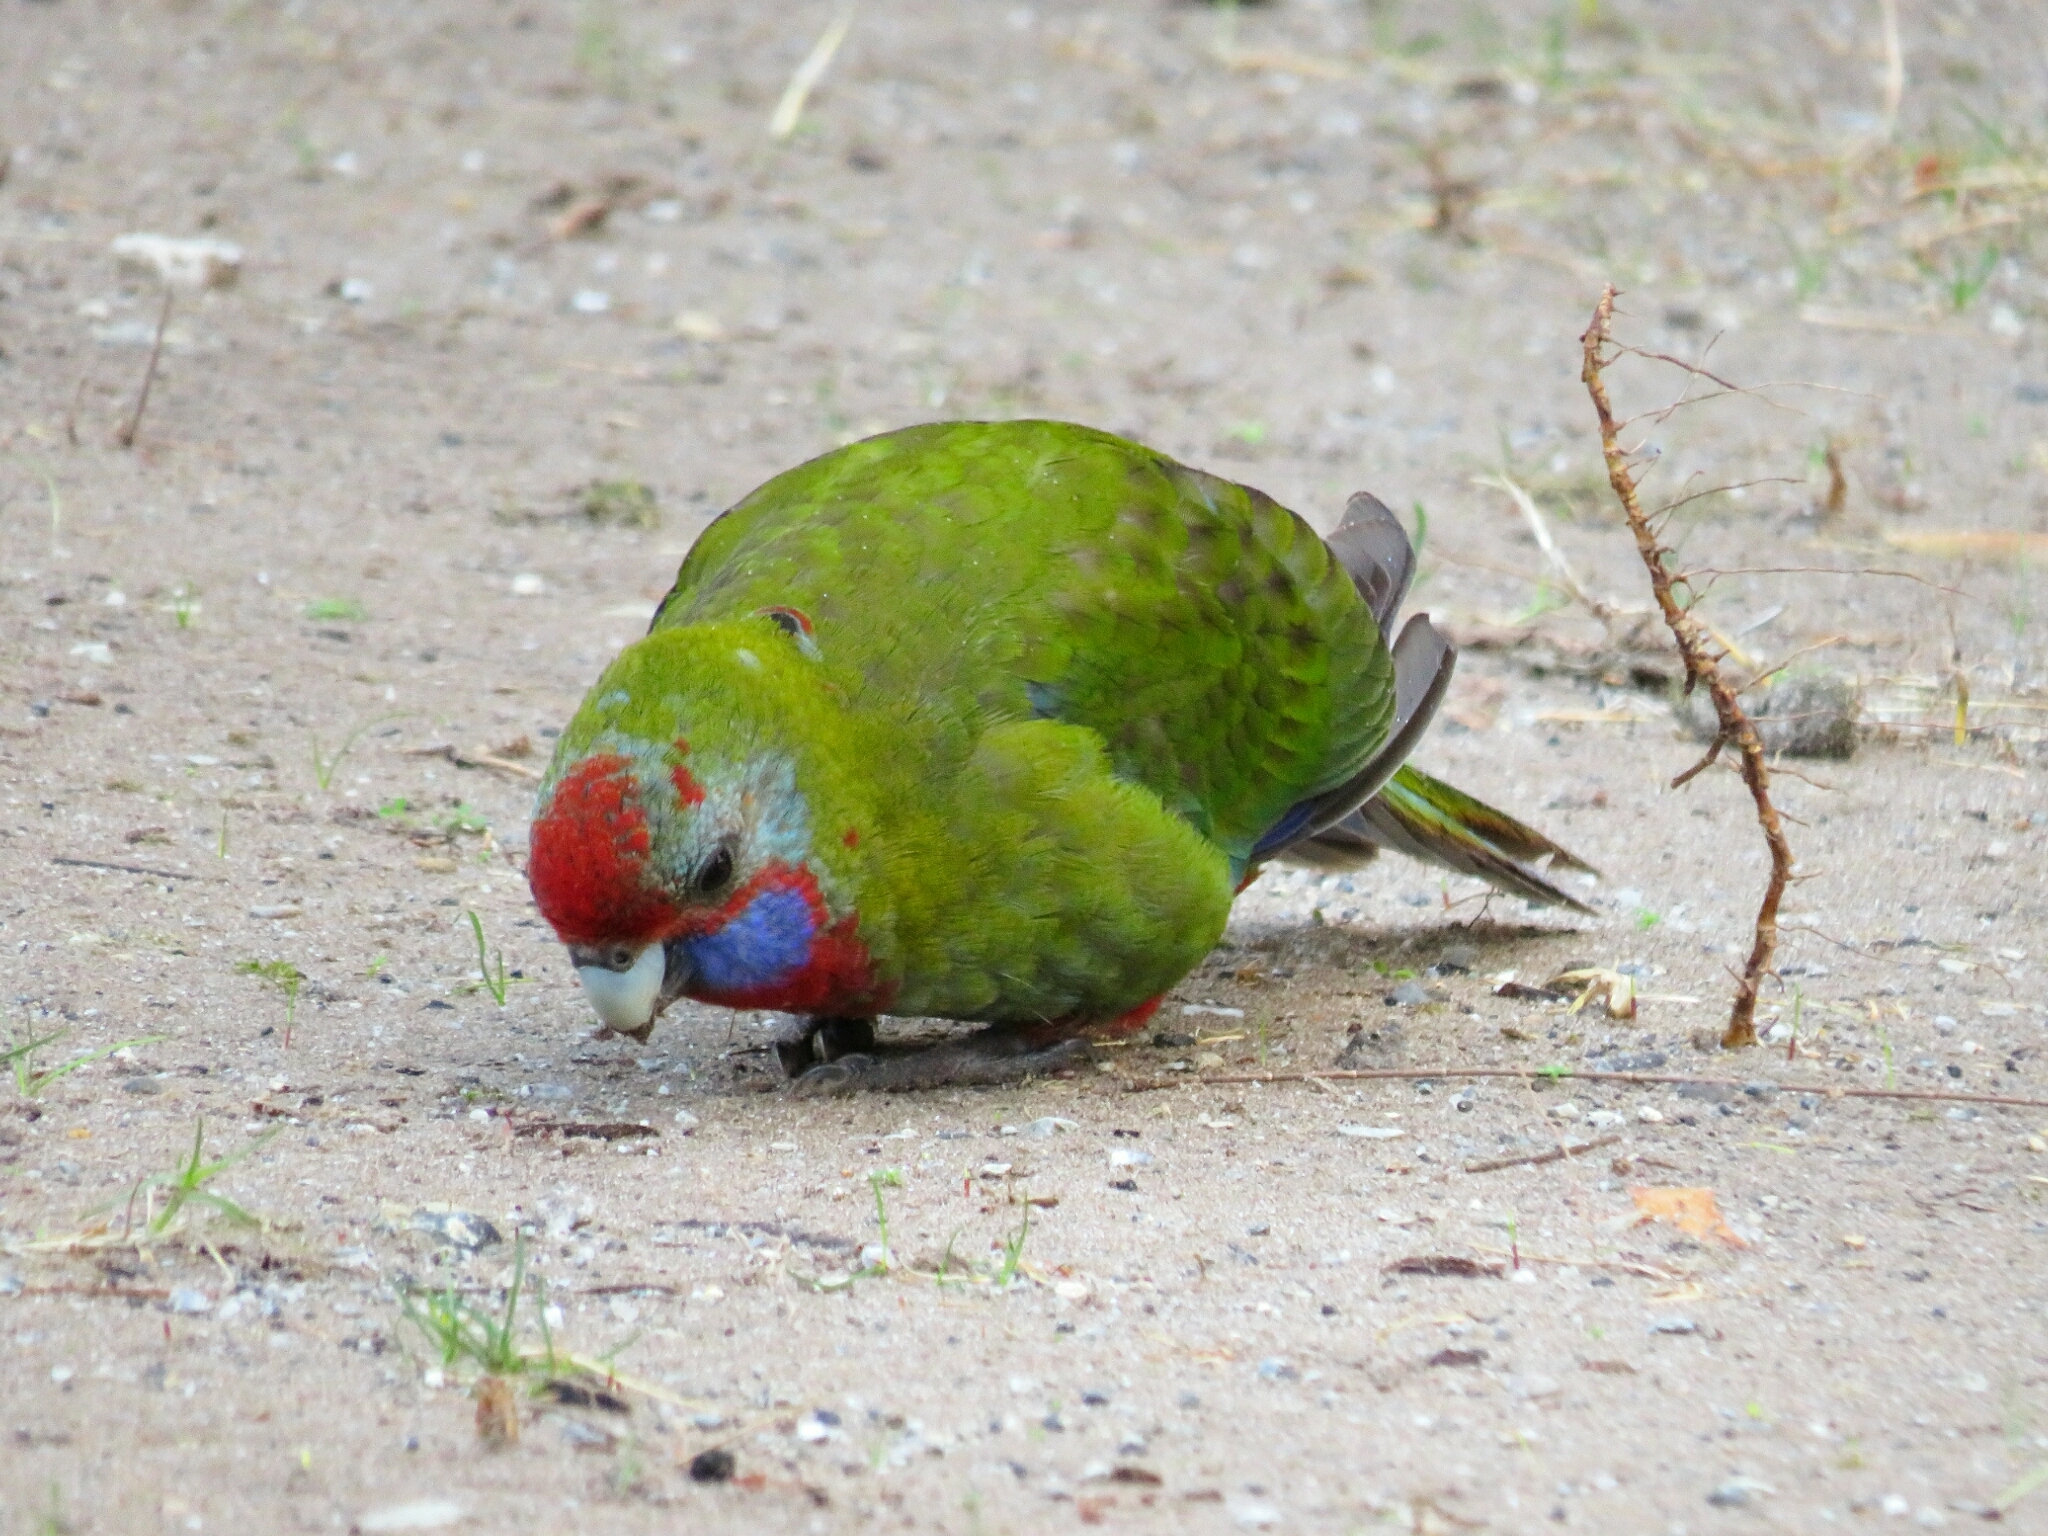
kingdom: Animalia
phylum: Chordata
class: Aves
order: Psittaciformes
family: Psittacidae
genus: Platycercus
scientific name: Platycercus elegans
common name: Crimson rosella
